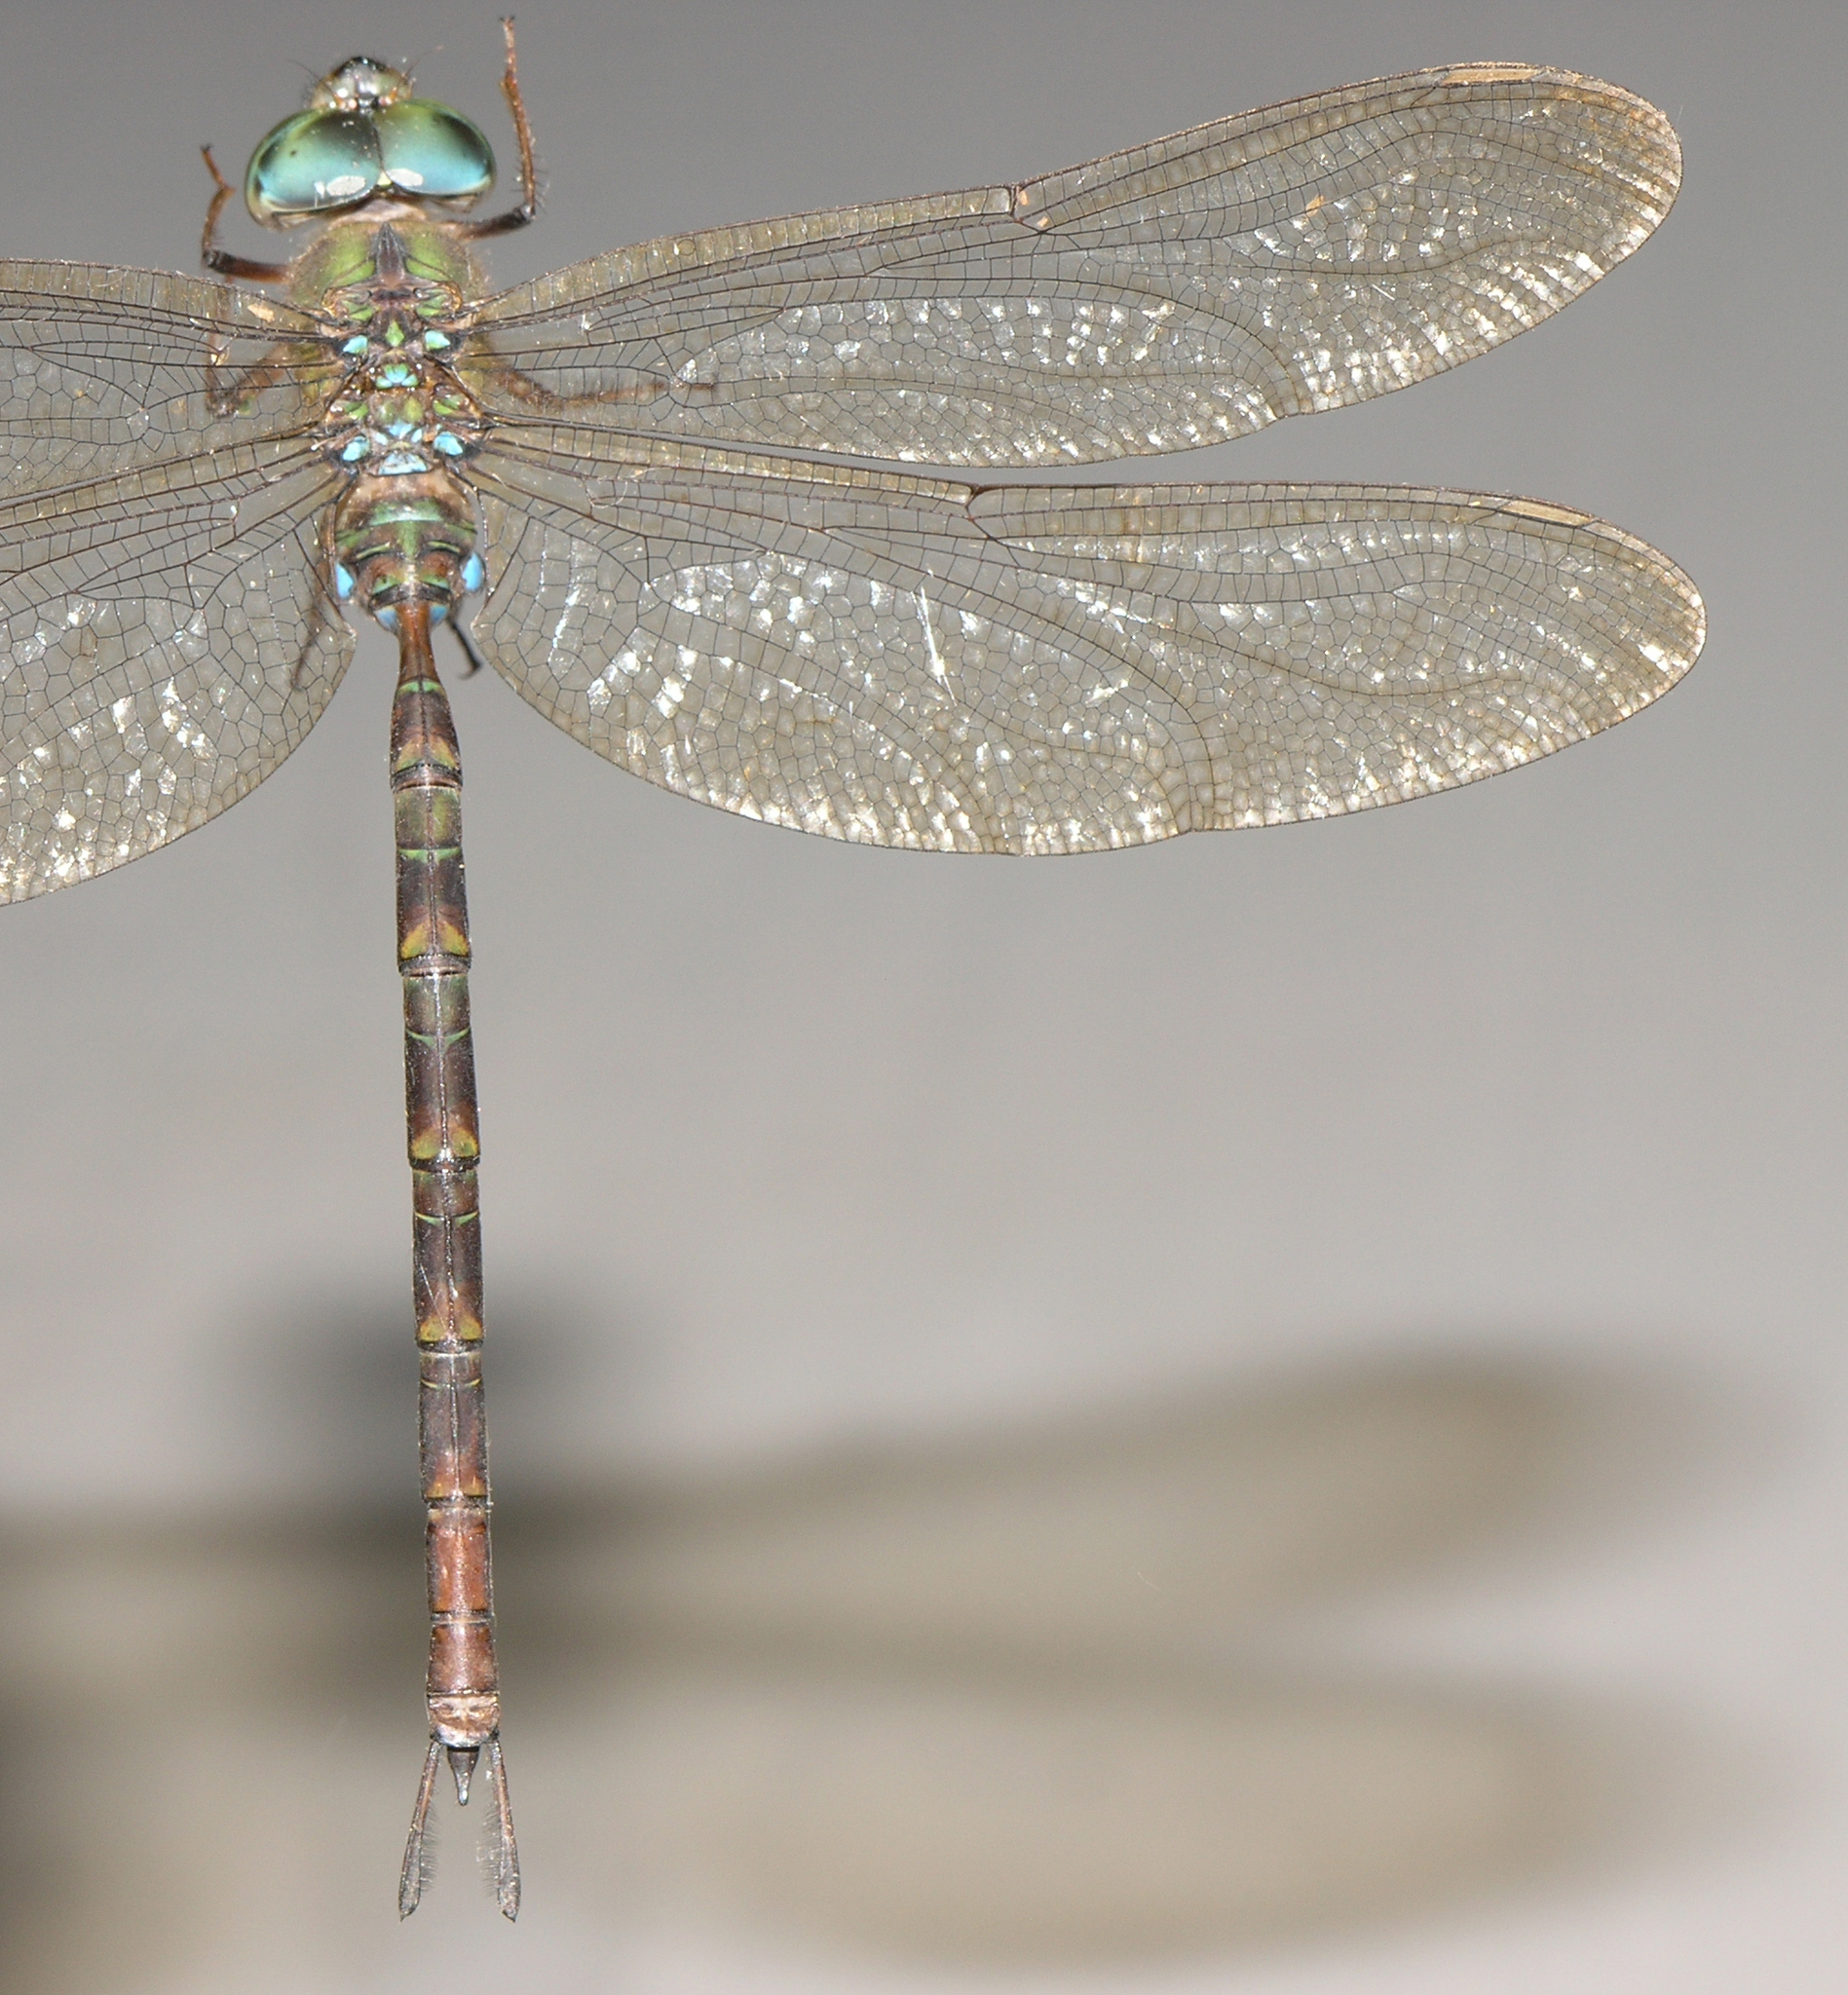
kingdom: Animalia
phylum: Arthropoda
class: Insecta
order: Odonata
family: Aeshnidae
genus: Gynacantha
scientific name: Gynacantha subinterrupta
